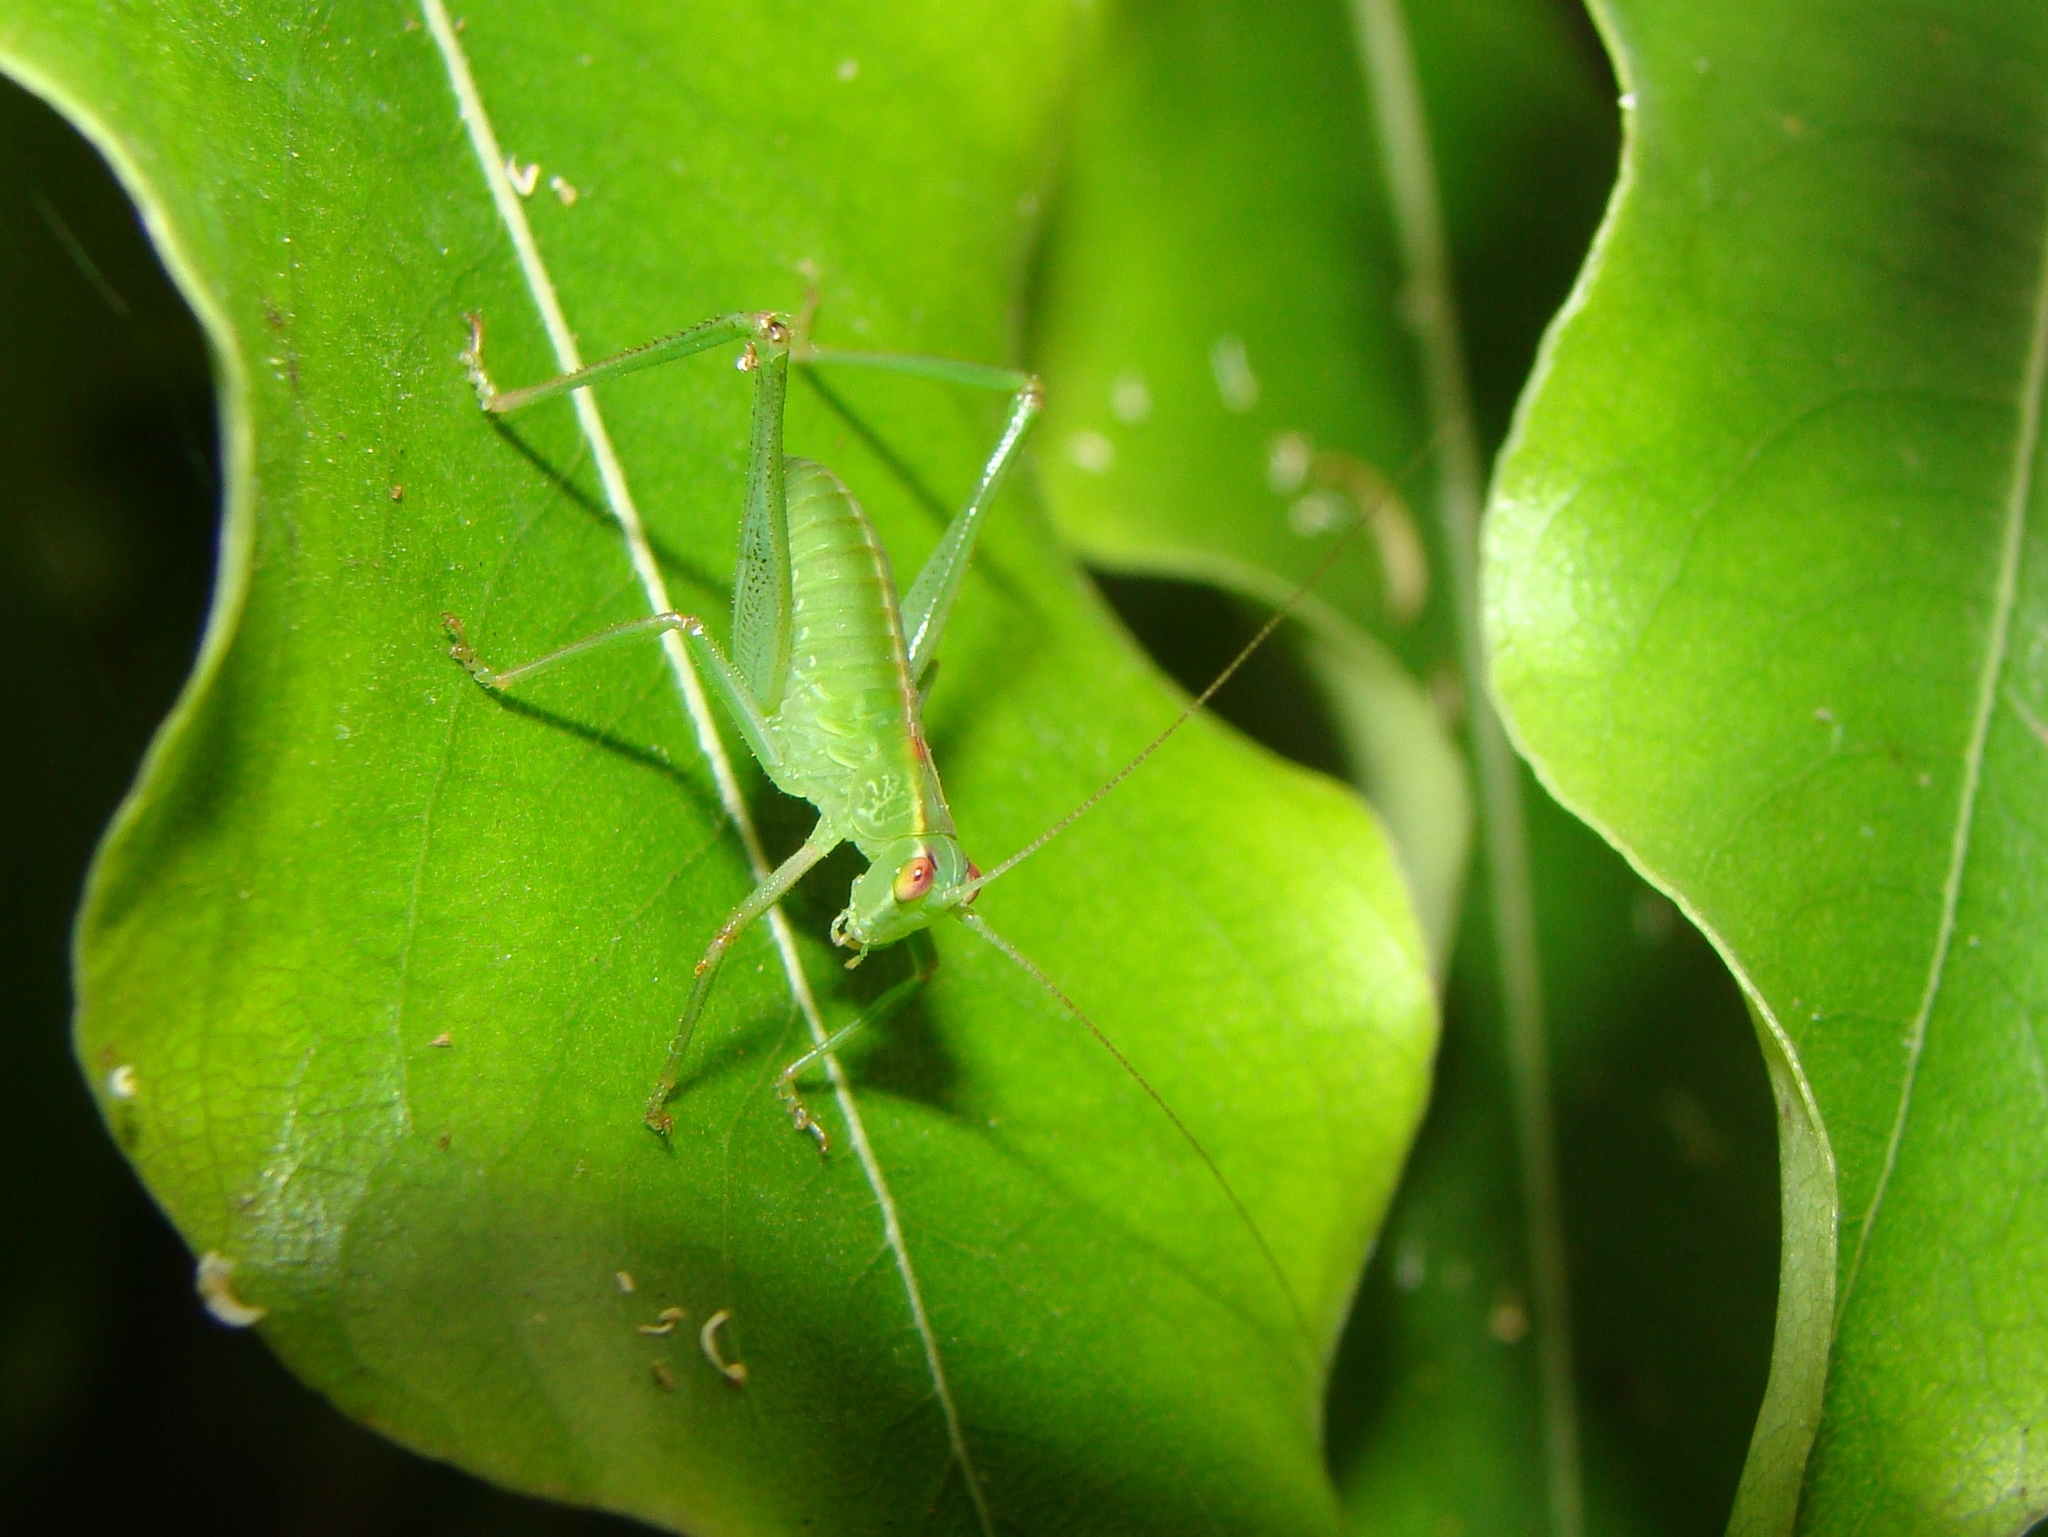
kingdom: Animalia
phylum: Arthropoda
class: Insecta
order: Orthoptera
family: Tettigoniidae
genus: Caedicia
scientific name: Caedicia simplex
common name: Common garden katydid
